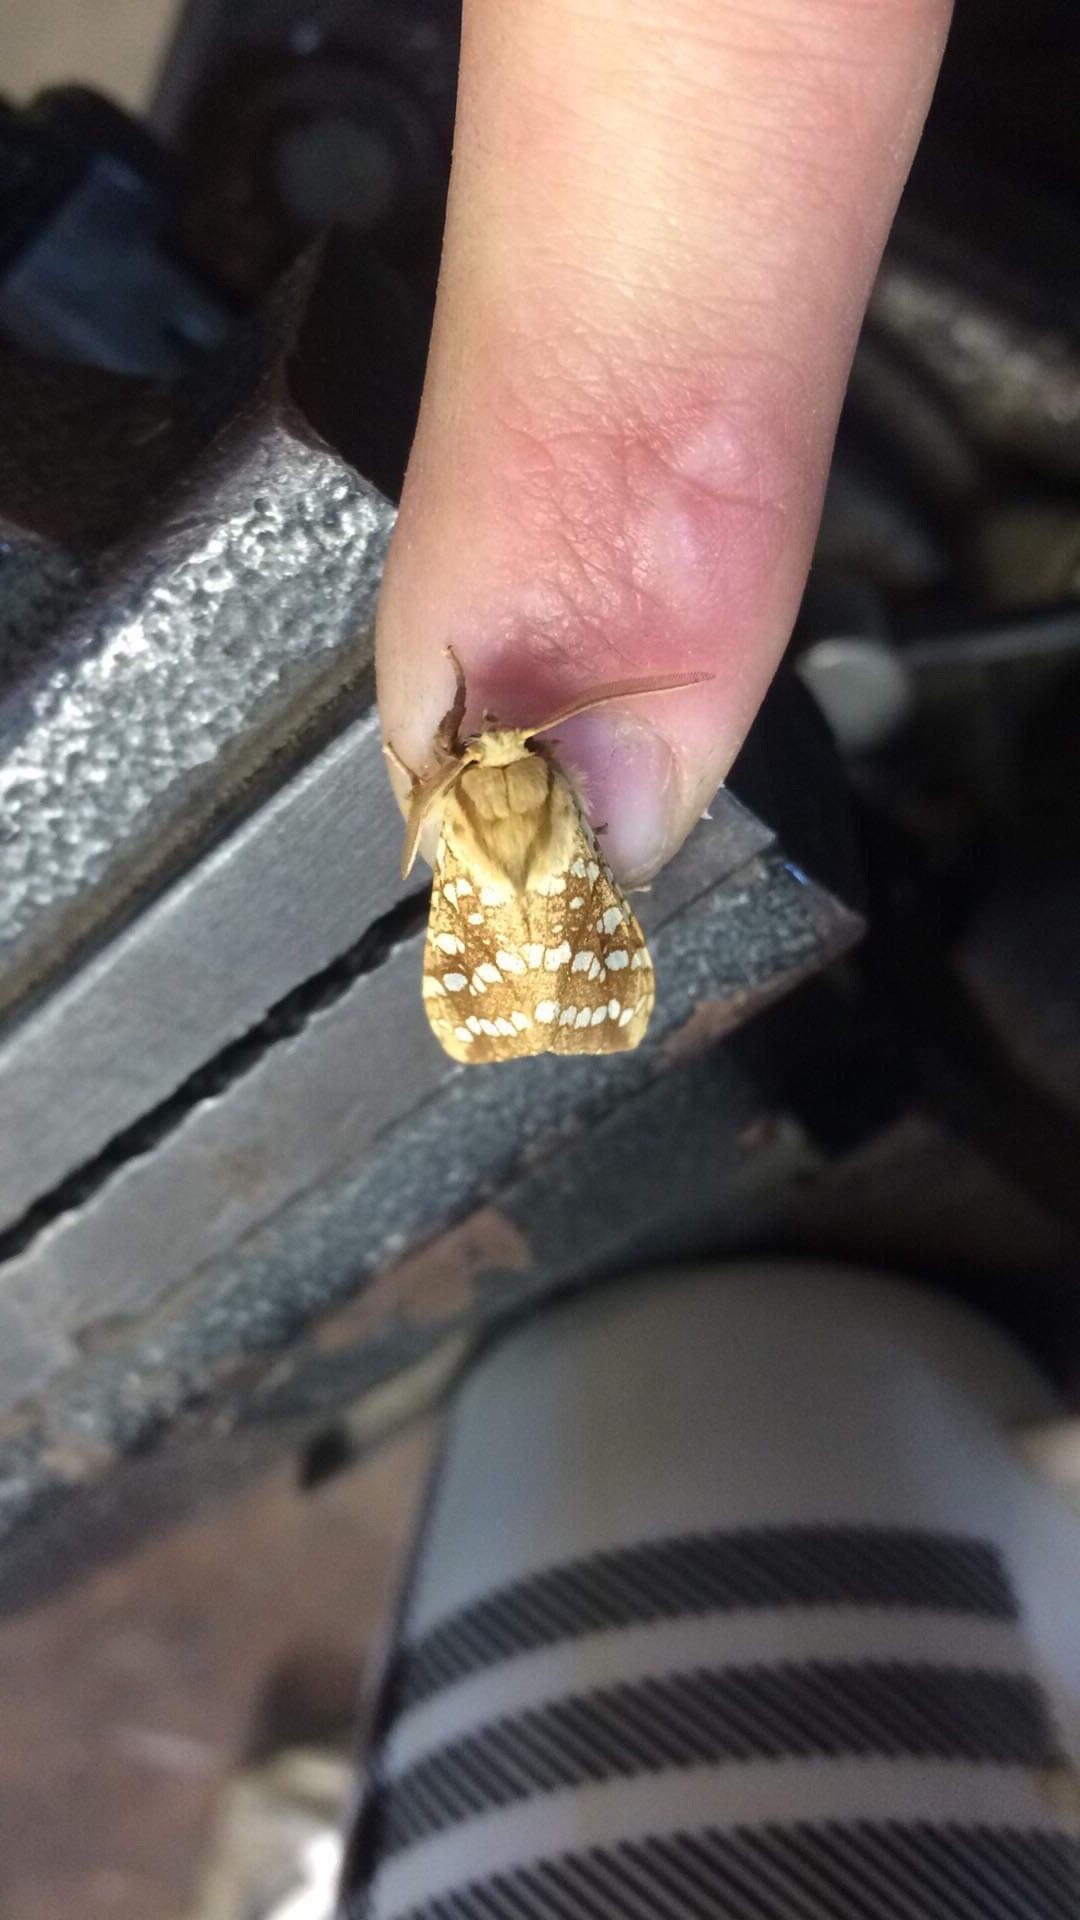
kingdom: Animalia
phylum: Arthropoda
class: Insecta
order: Lepidoptera
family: Erebidae
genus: Lophocampa
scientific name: Lophocampa caryae
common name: Hickory tussock moth
